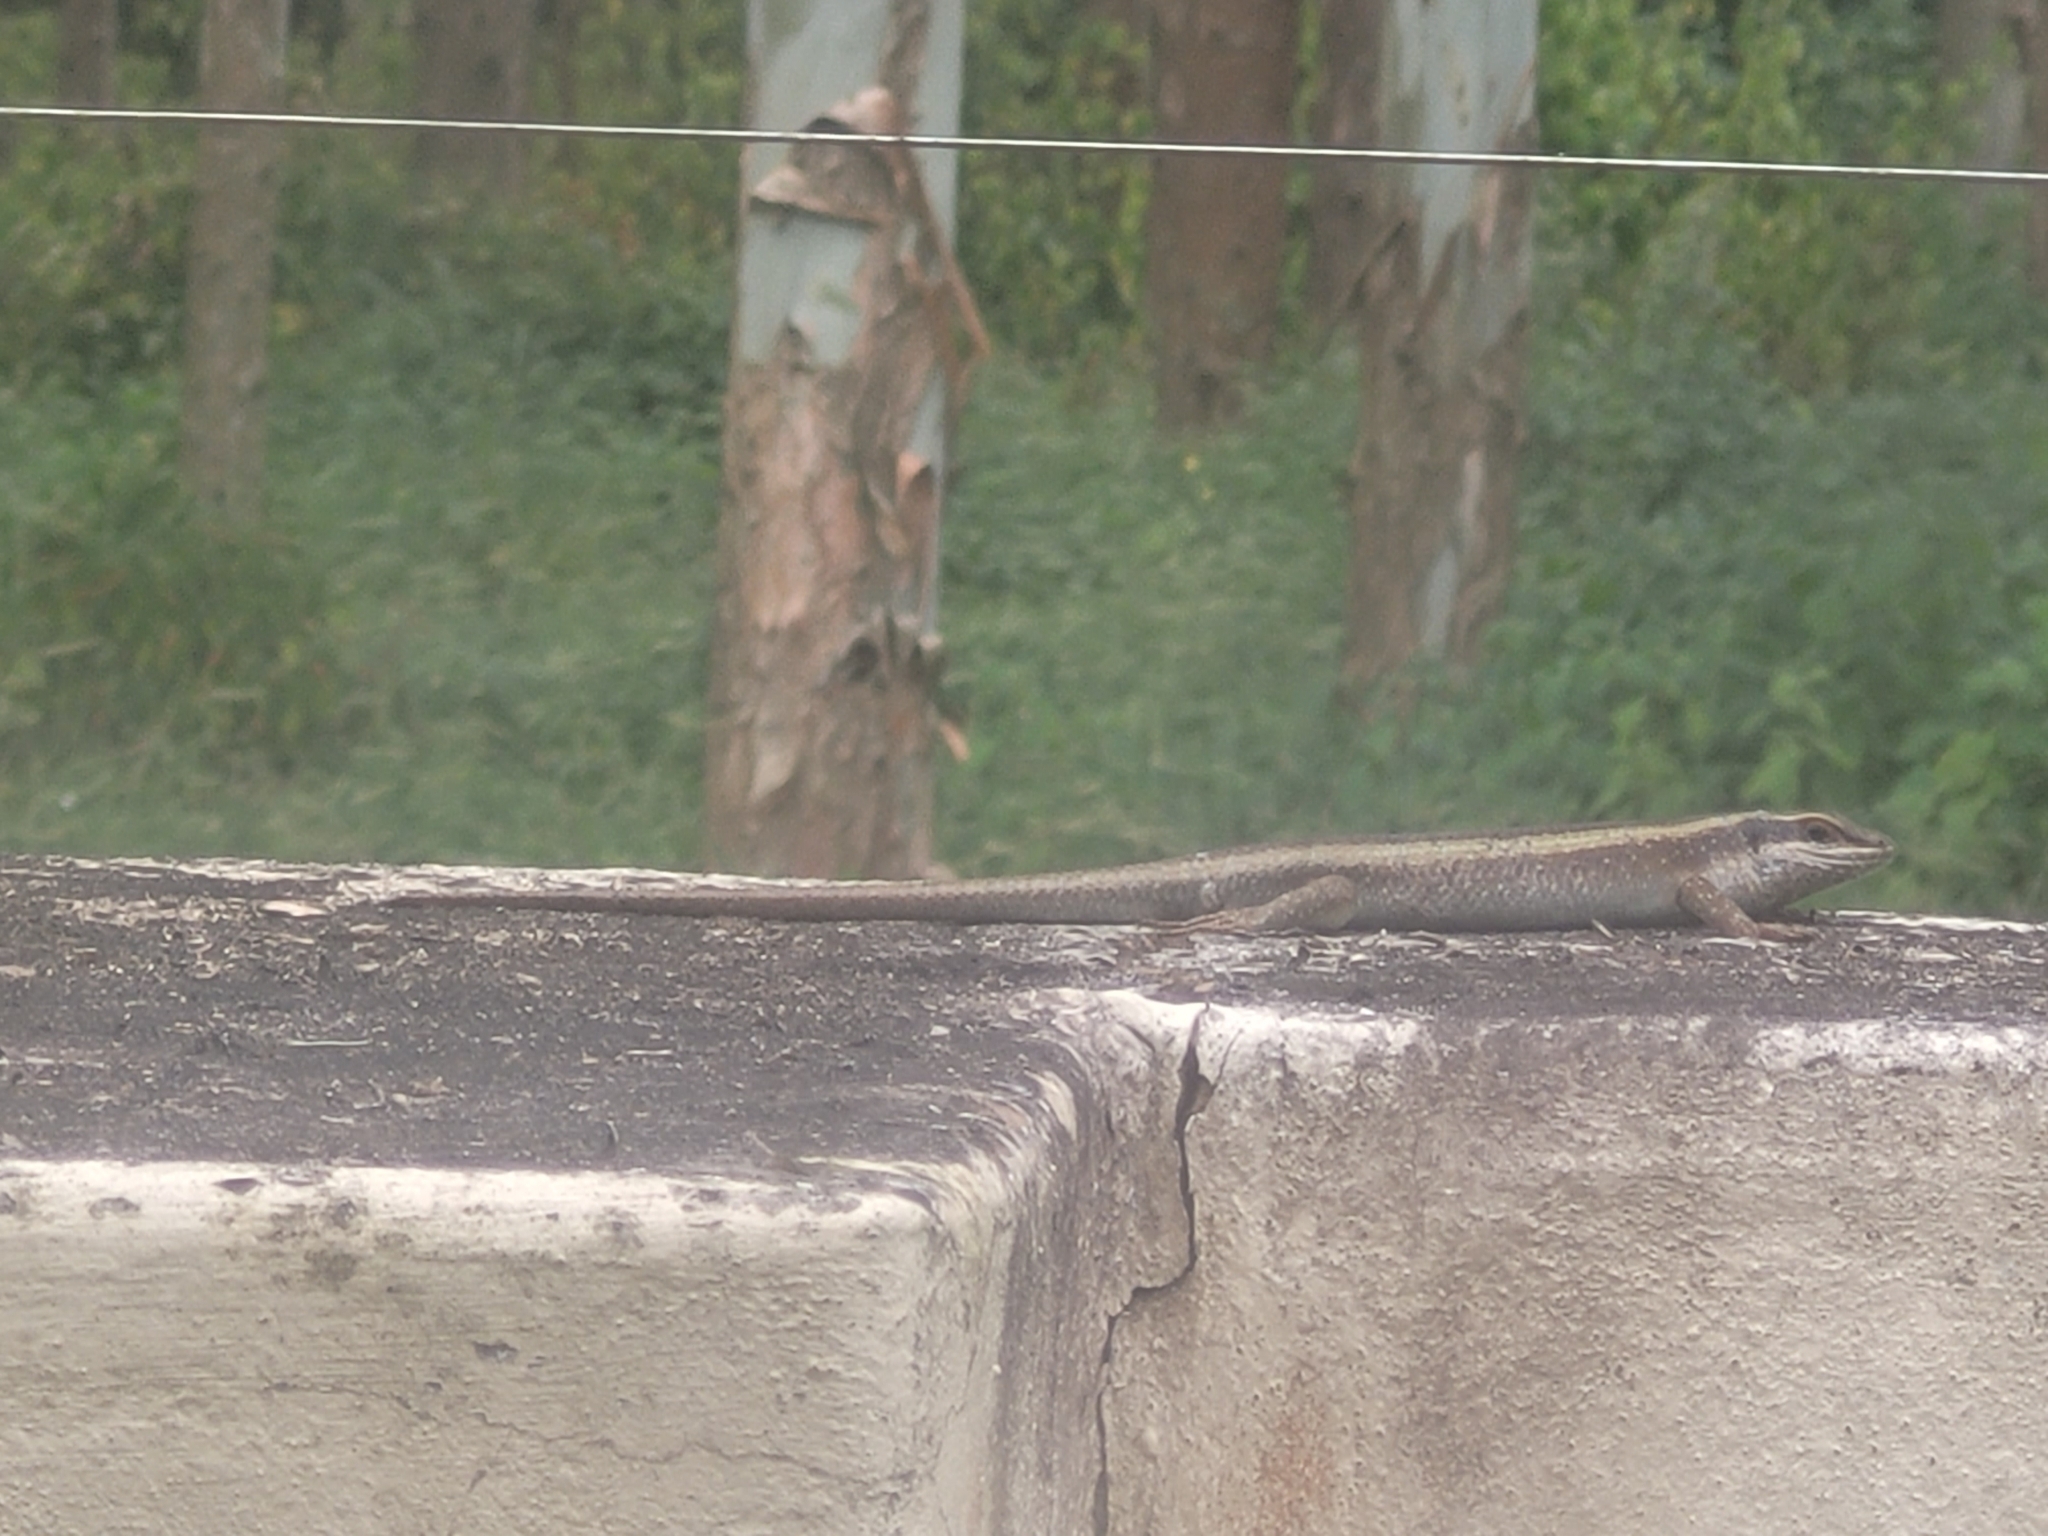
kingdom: Animalia
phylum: Chordata
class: Squamata
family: Scincidae
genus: Trachylepis
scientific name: Trachylepis striata
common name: African striped mabuya
